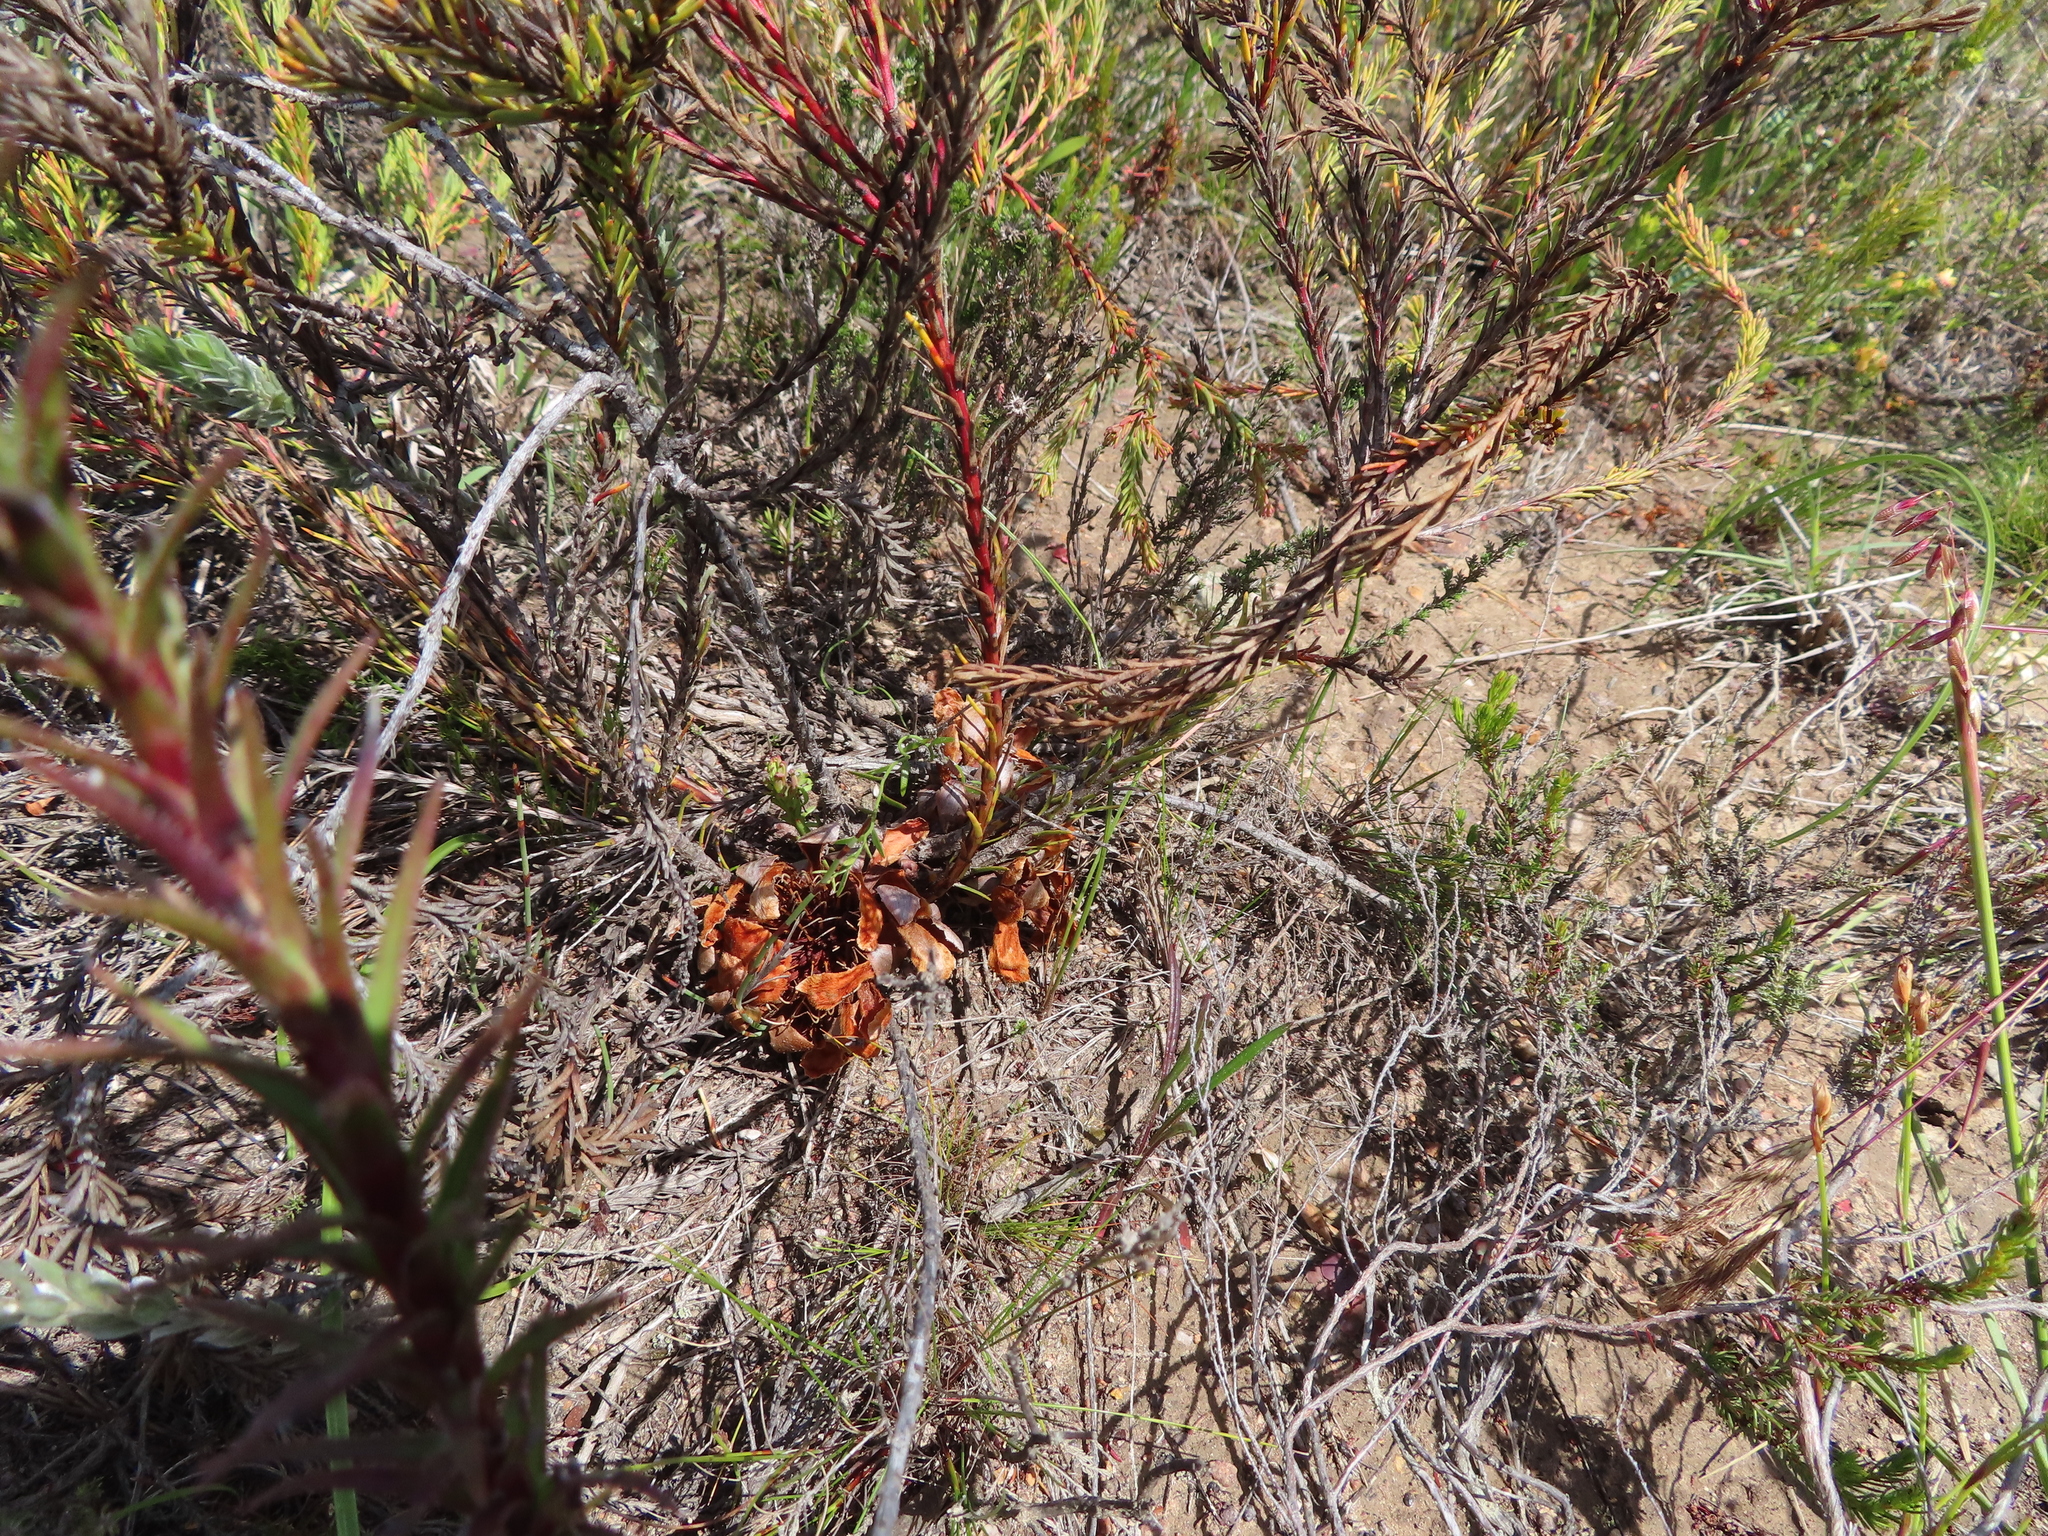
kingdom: Plantae
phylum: Tracheophyta
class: Magnoliopsida
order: Proteales
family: Proteaceae
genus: Protea
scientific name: Protea subulifolia
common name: Awl-leaf sugarbush
